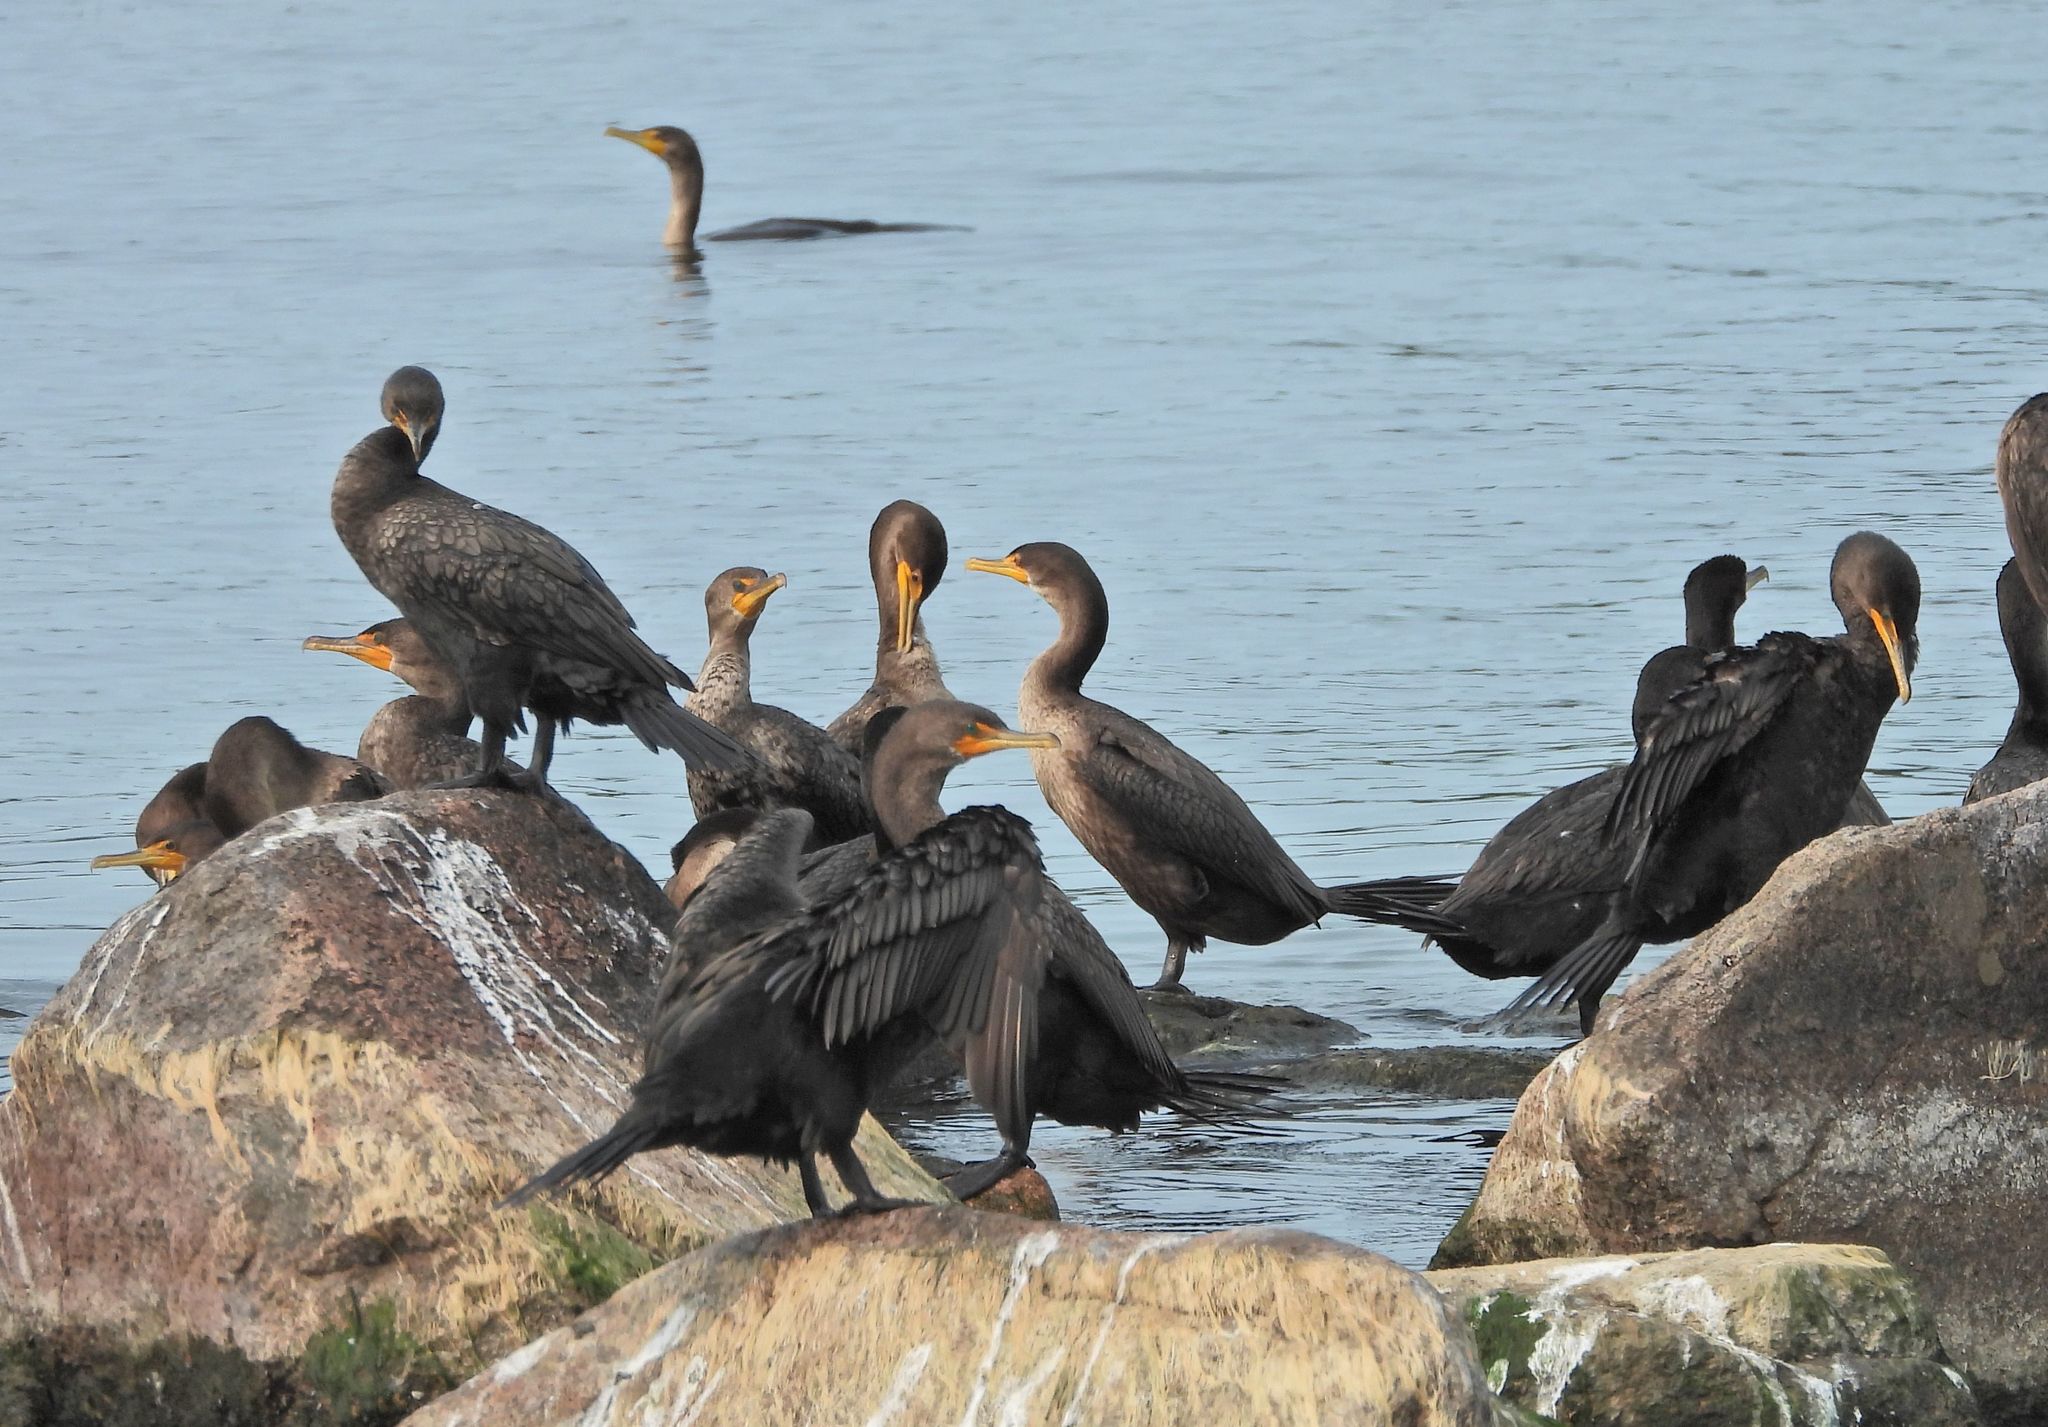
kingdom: Animalia
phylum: Chordata
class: Aves
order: Suliformes
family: Phalacrocoracidae
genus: Phalacrocorax
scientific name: Phalacrocorax auritus
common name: Double-crested cormorant
